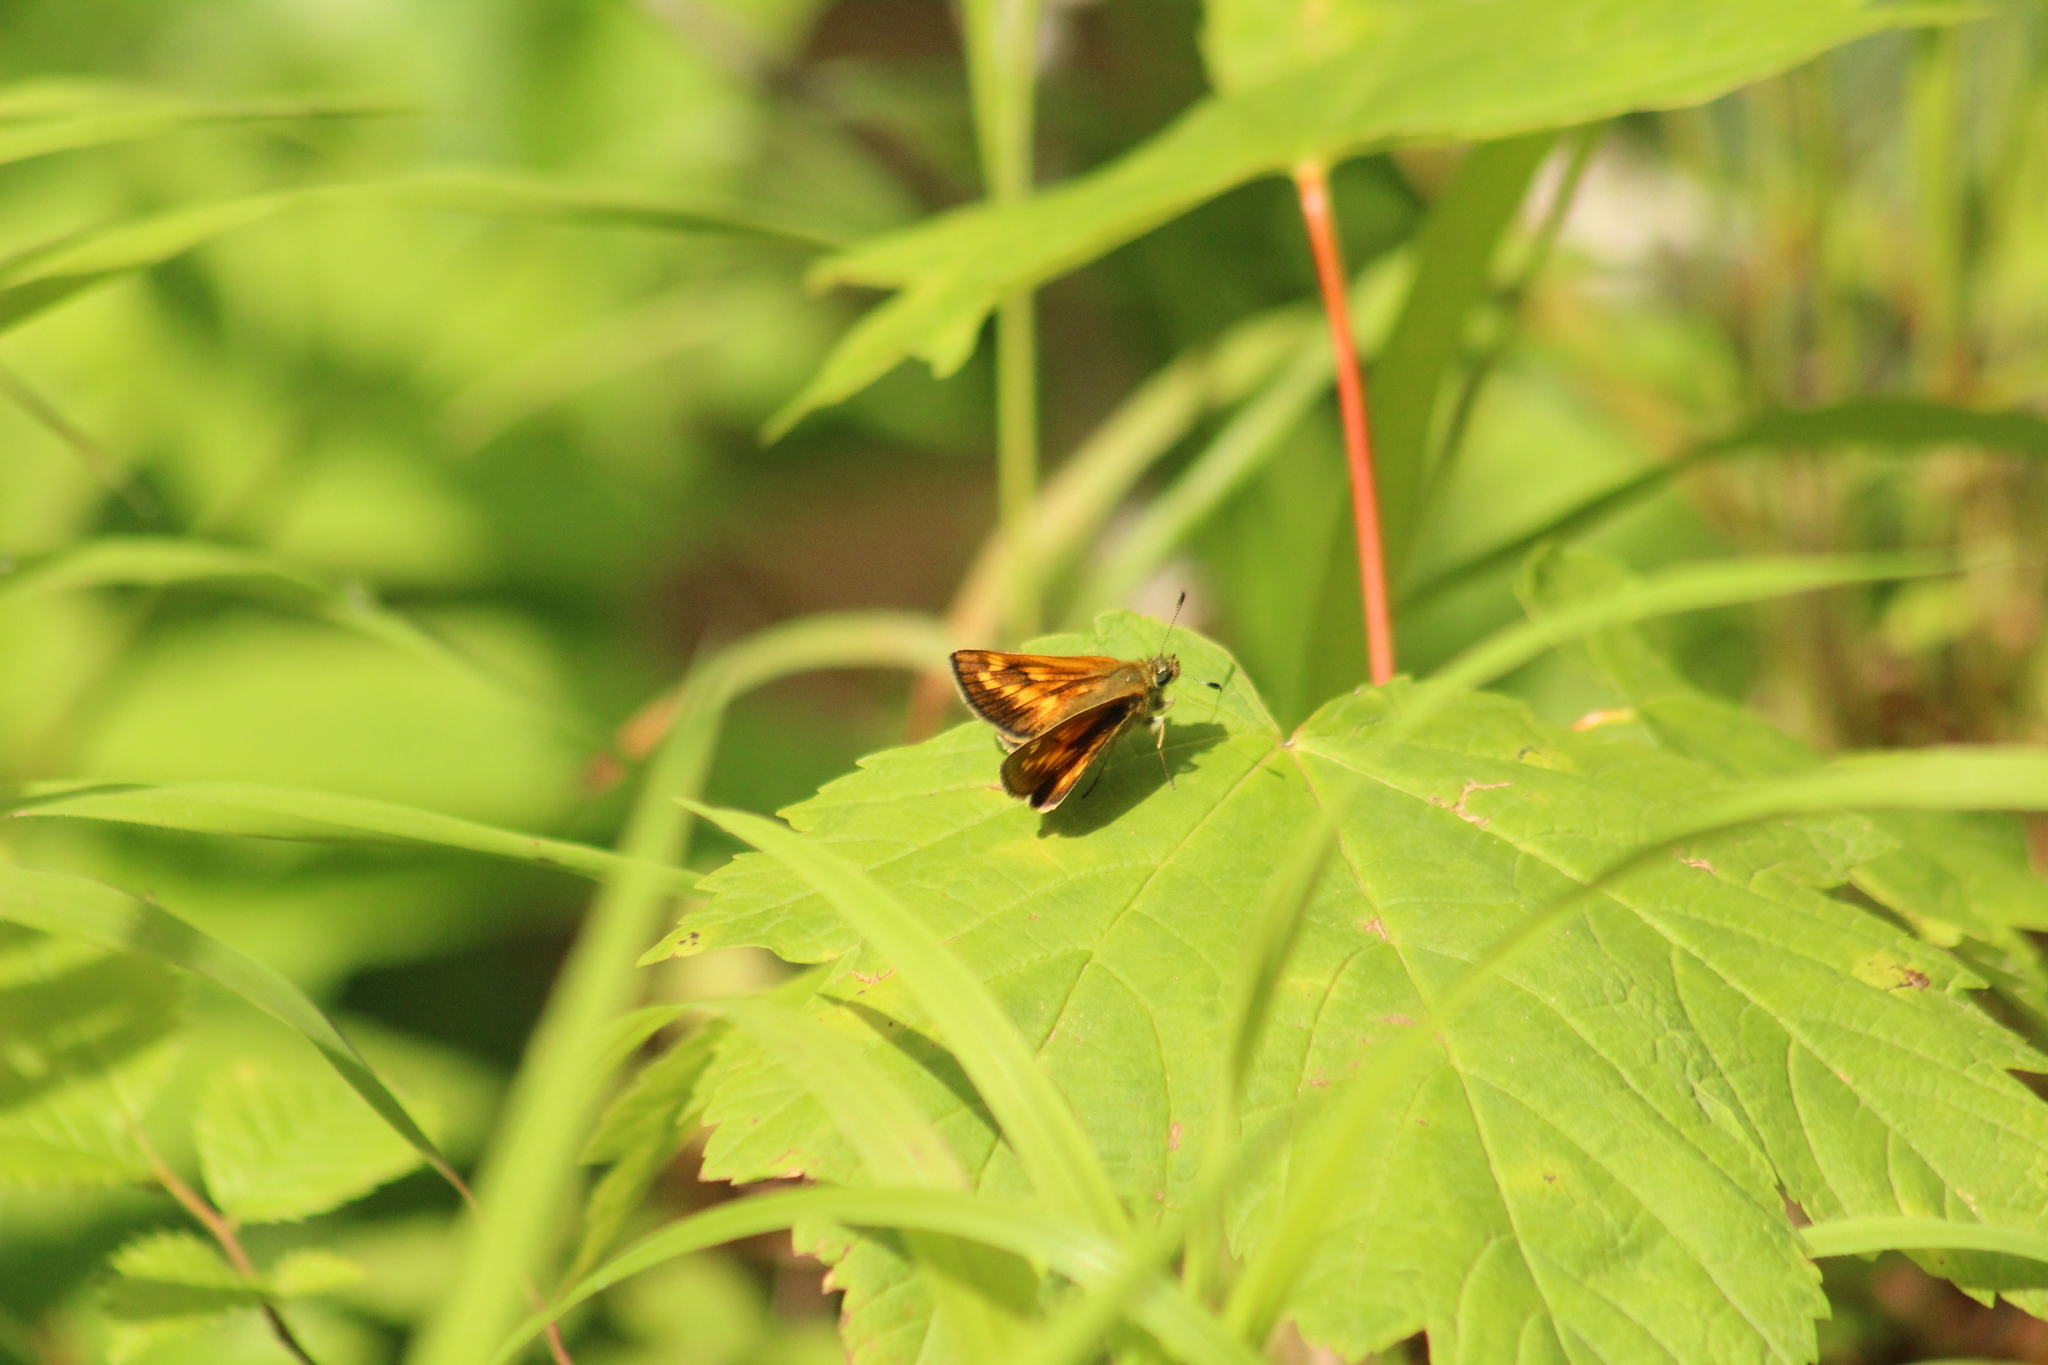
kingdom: Animalia
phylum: Arthropoda
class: Insecta
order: Lepidoptera
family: Hesperiidae
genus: Ochlodes
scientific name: Ochlodes venata
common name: Large skipper
